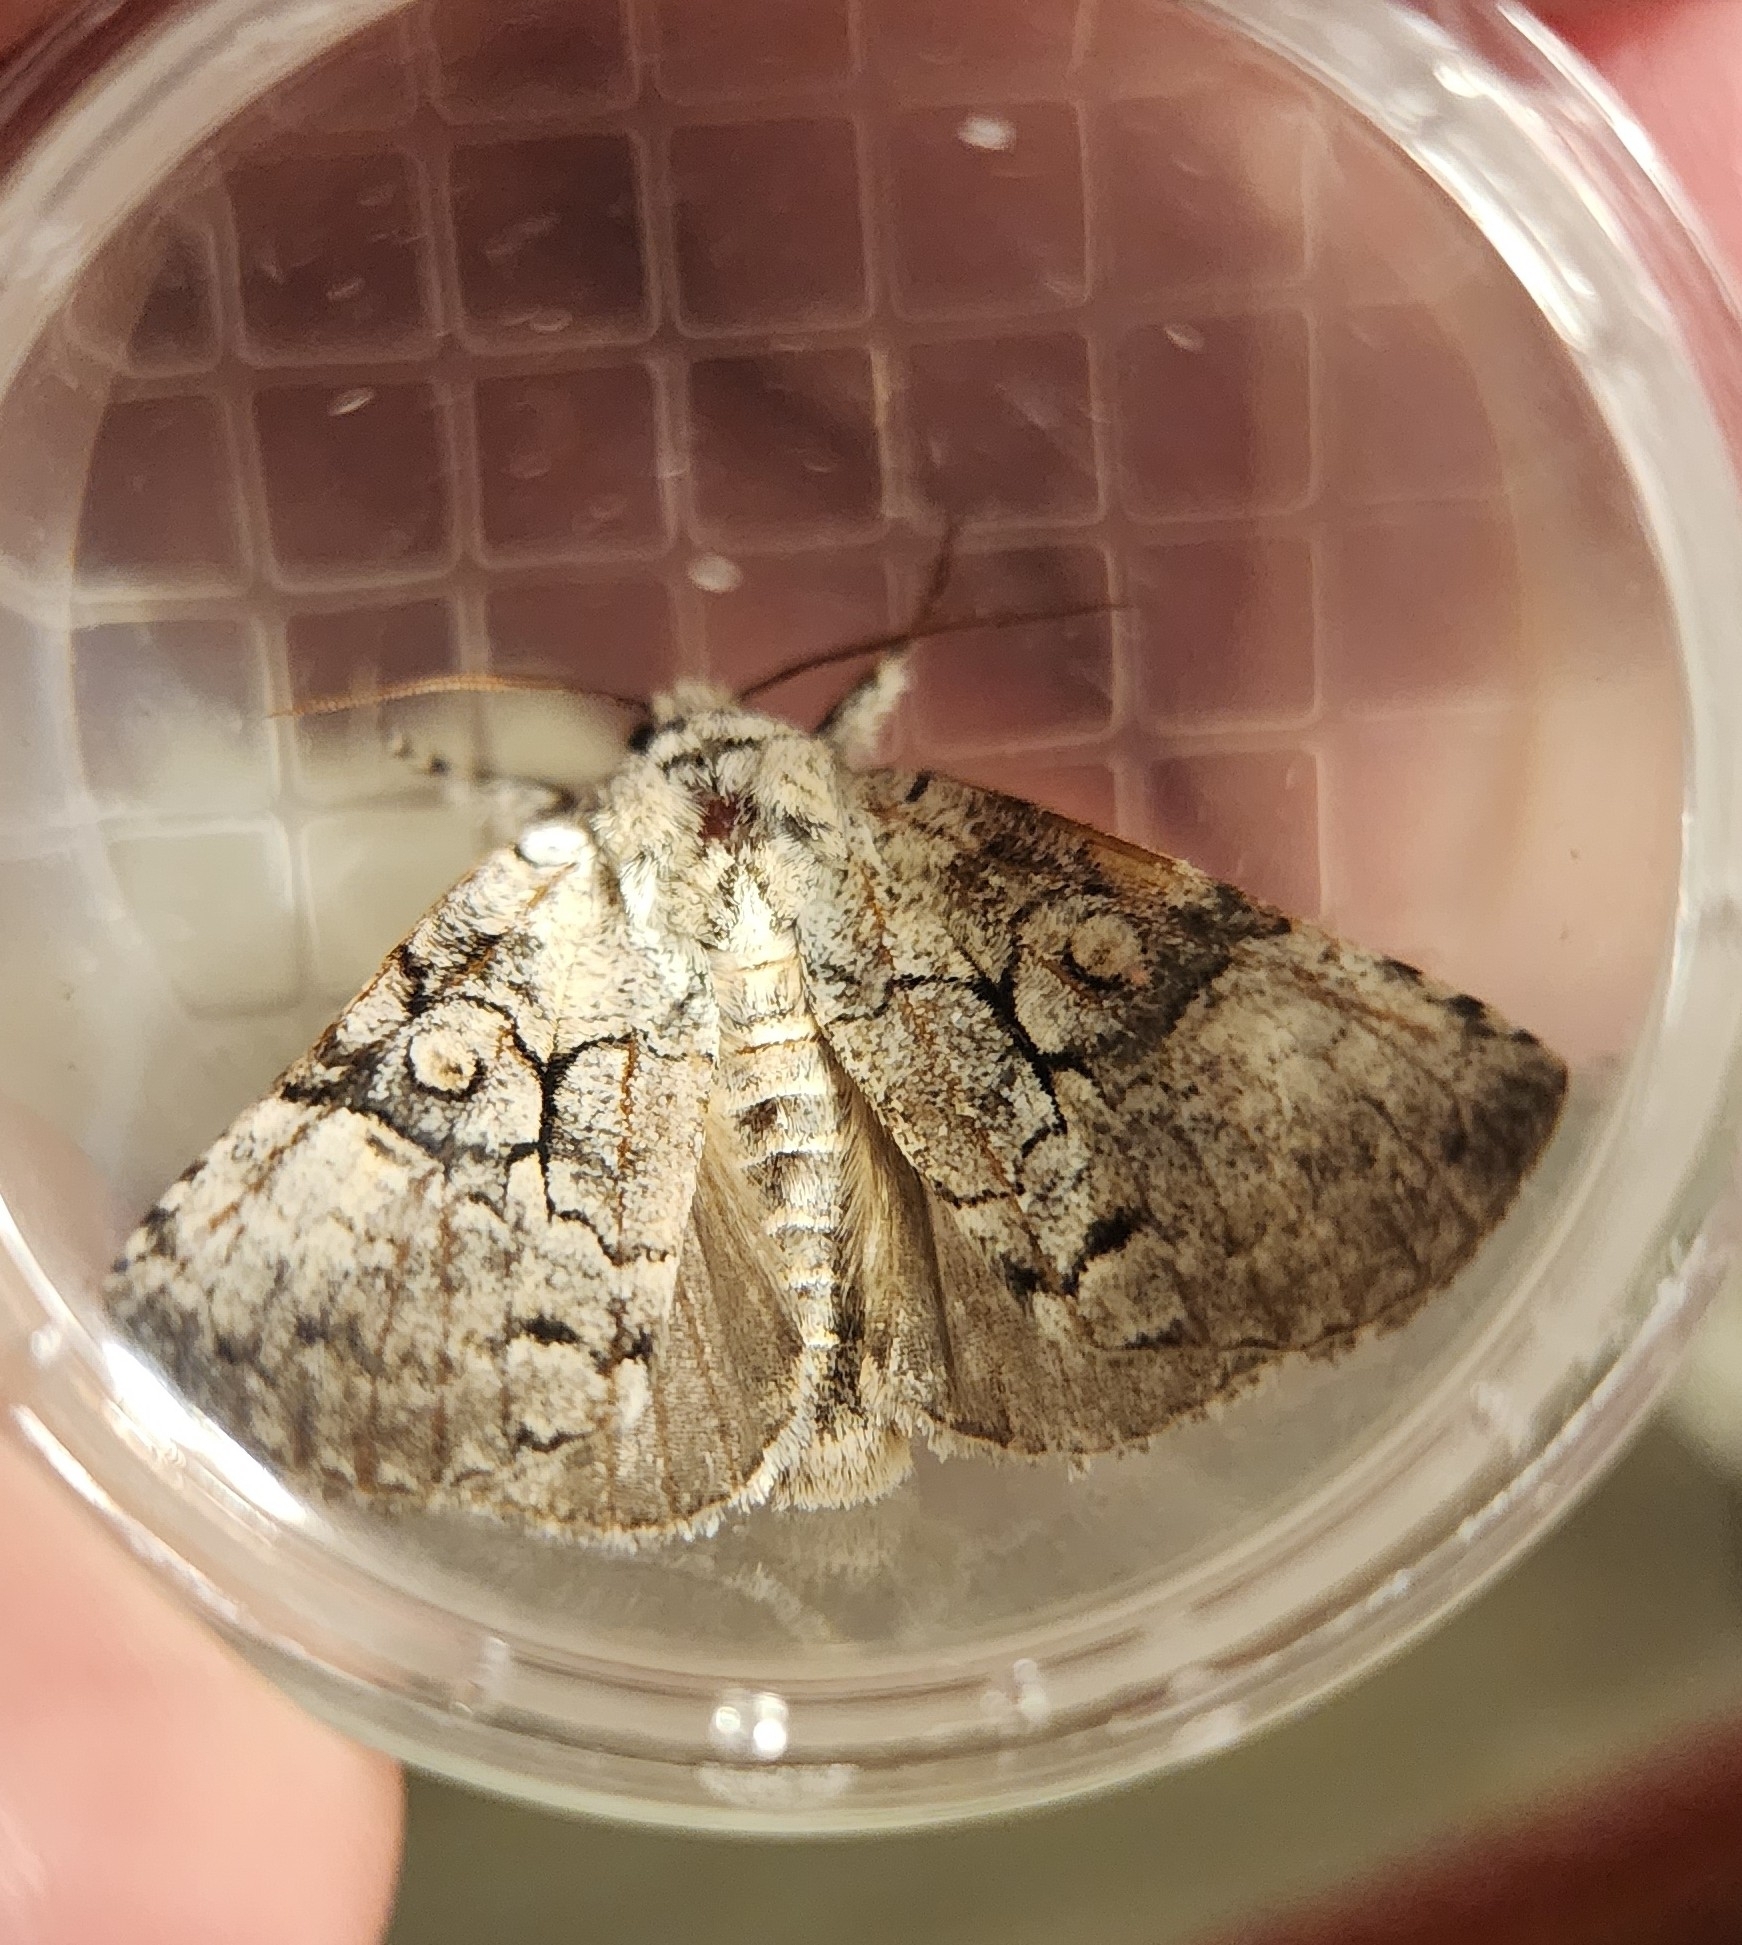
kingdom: Animalia
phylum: Arthropoda
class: Insecta
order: Lepidoptera
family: Noctuidae
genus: Charadra
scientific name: Charadra deridens
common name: Marbled tuffet
